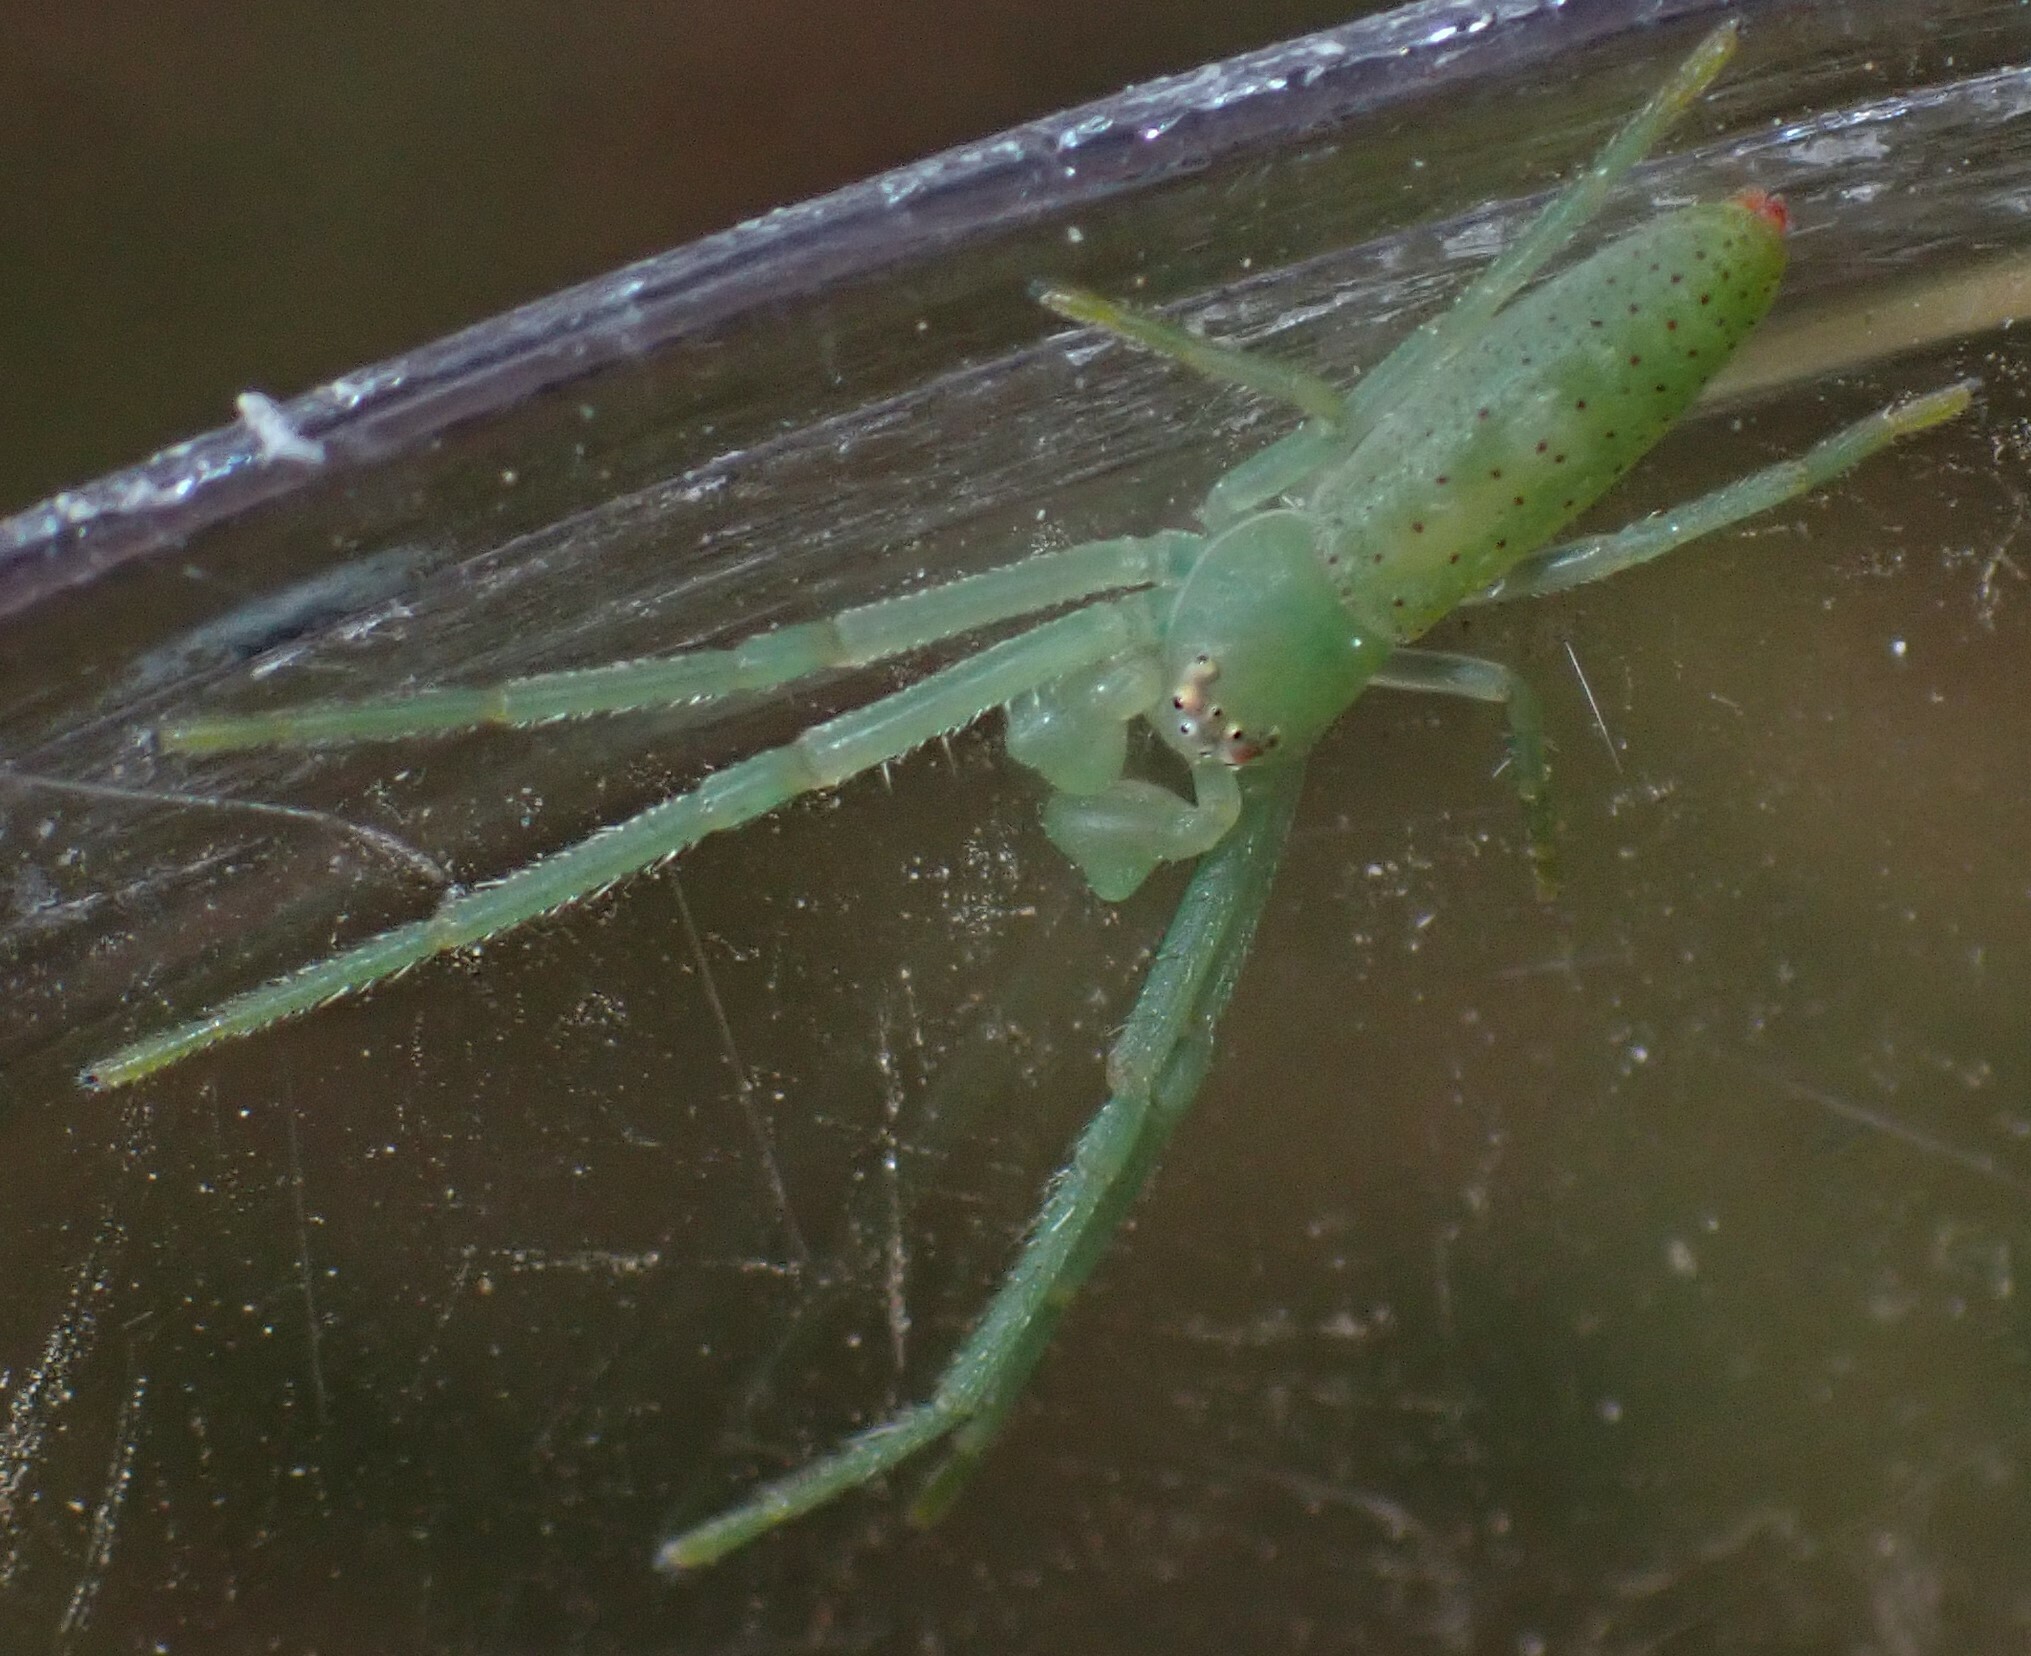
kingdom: Animalia
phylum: Arthropoda
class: Arachnida
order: Araneae
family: Thomisidae
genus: Cetratus
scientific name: Cetratus rubropunctatus
